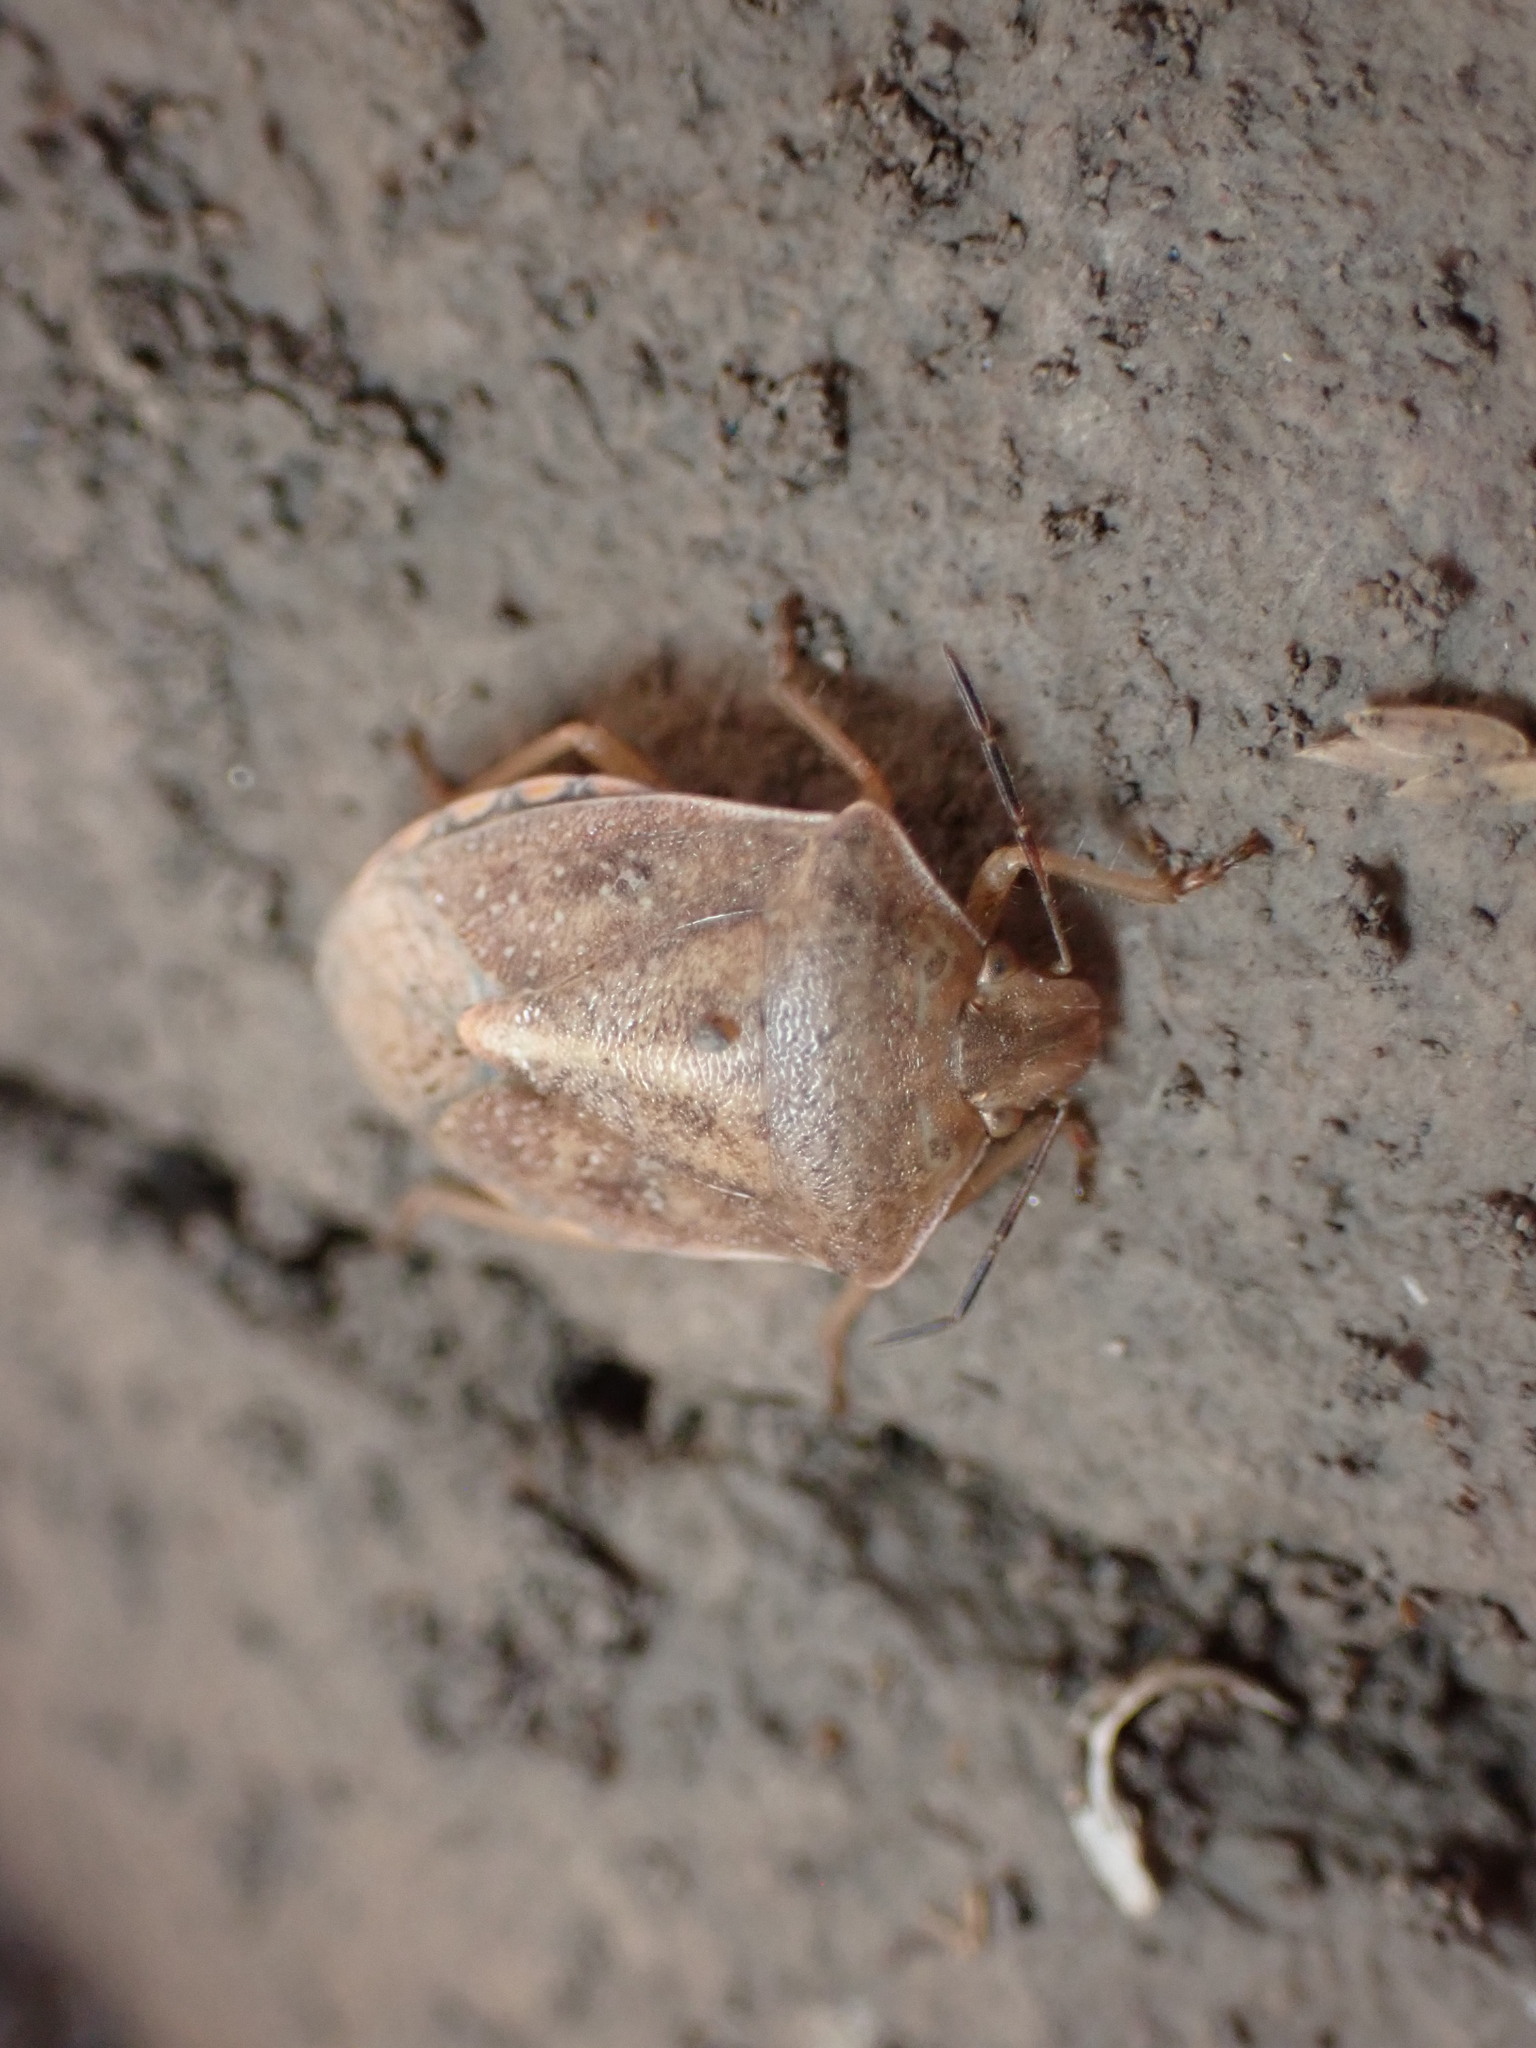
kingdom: Animalia
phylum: Arthropoda
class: Insecta
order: Hemiptera
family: Pentatomidae
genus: Thyanta
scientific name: Thyanta accerra
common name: Stink bug
